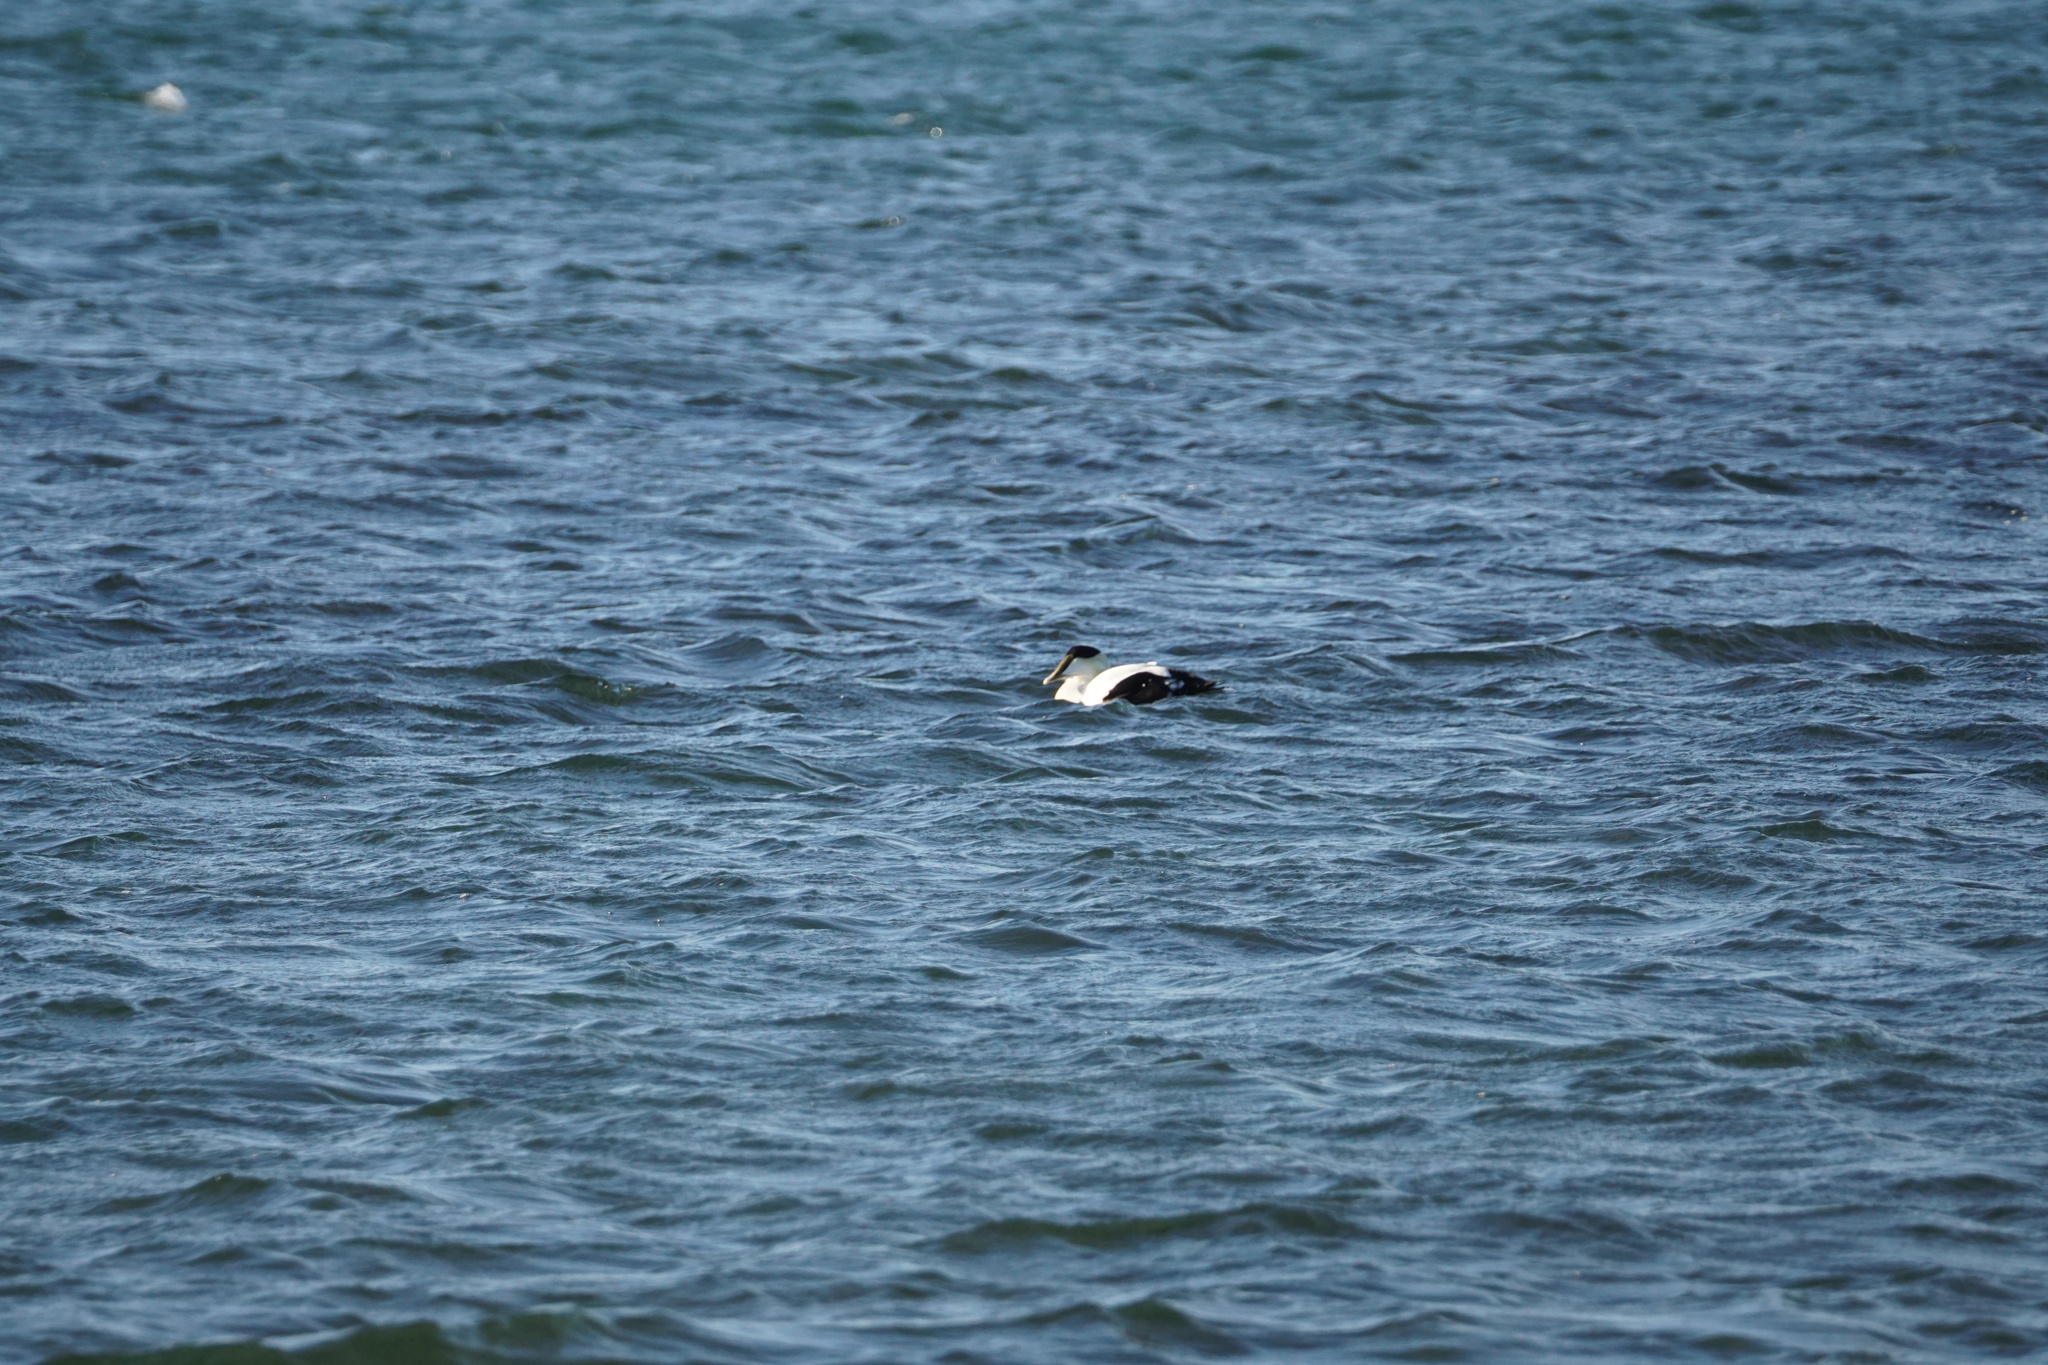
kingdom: Animalia
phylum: Chordata
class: Aves
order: Anseriformes
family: Anatidae
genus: Somateria
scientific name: Somateria mollissima
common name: Common eider
